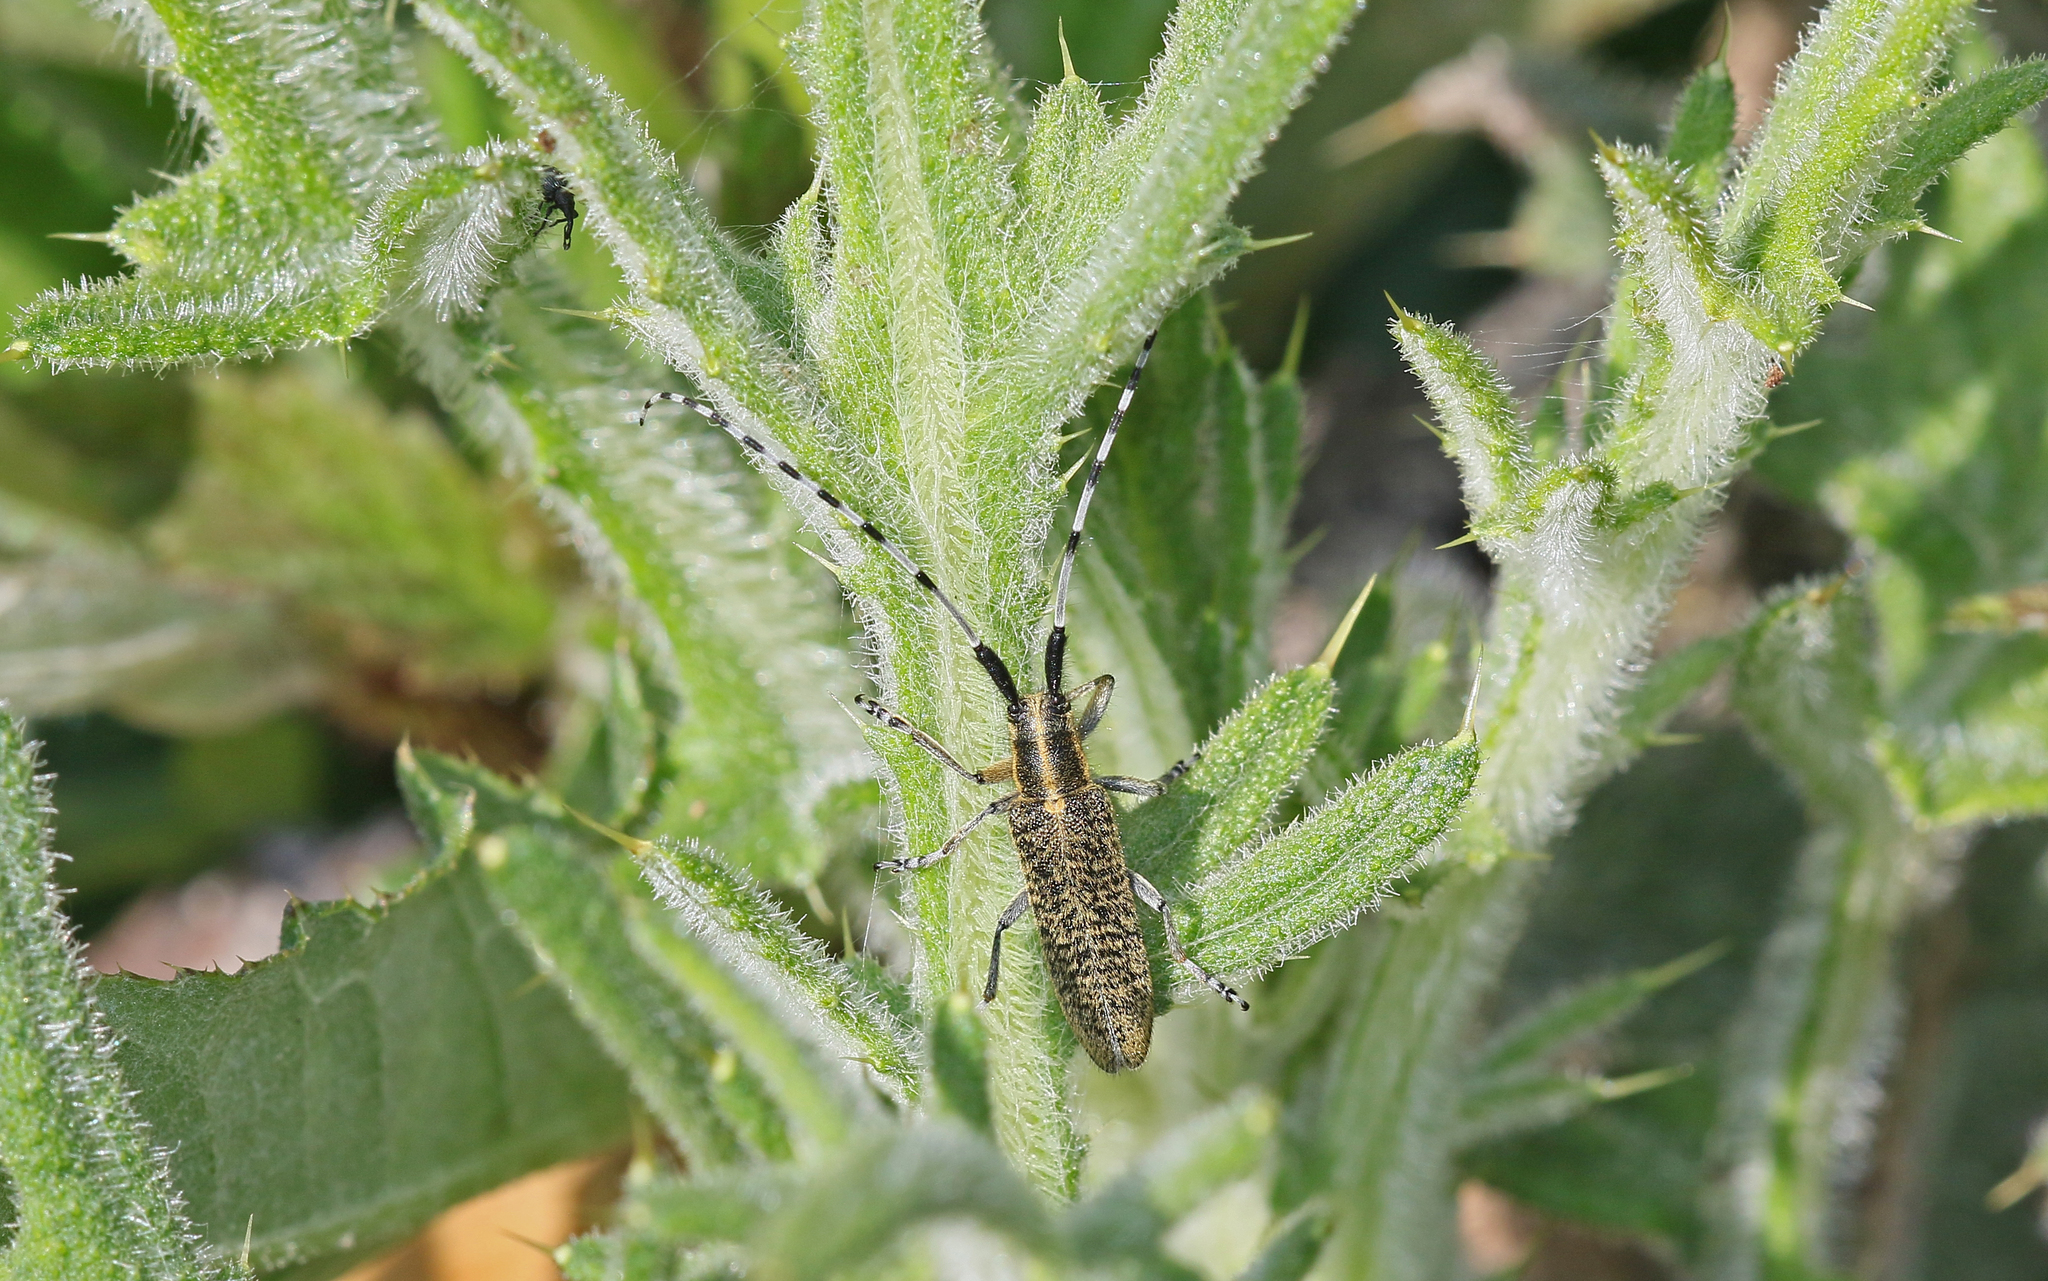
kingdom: Animalia
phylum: Arthropoda
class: Insecta
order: Coleoptera
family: Cerambycidae
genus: Agapanthia
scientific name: Agapanthia villosoviridescens
